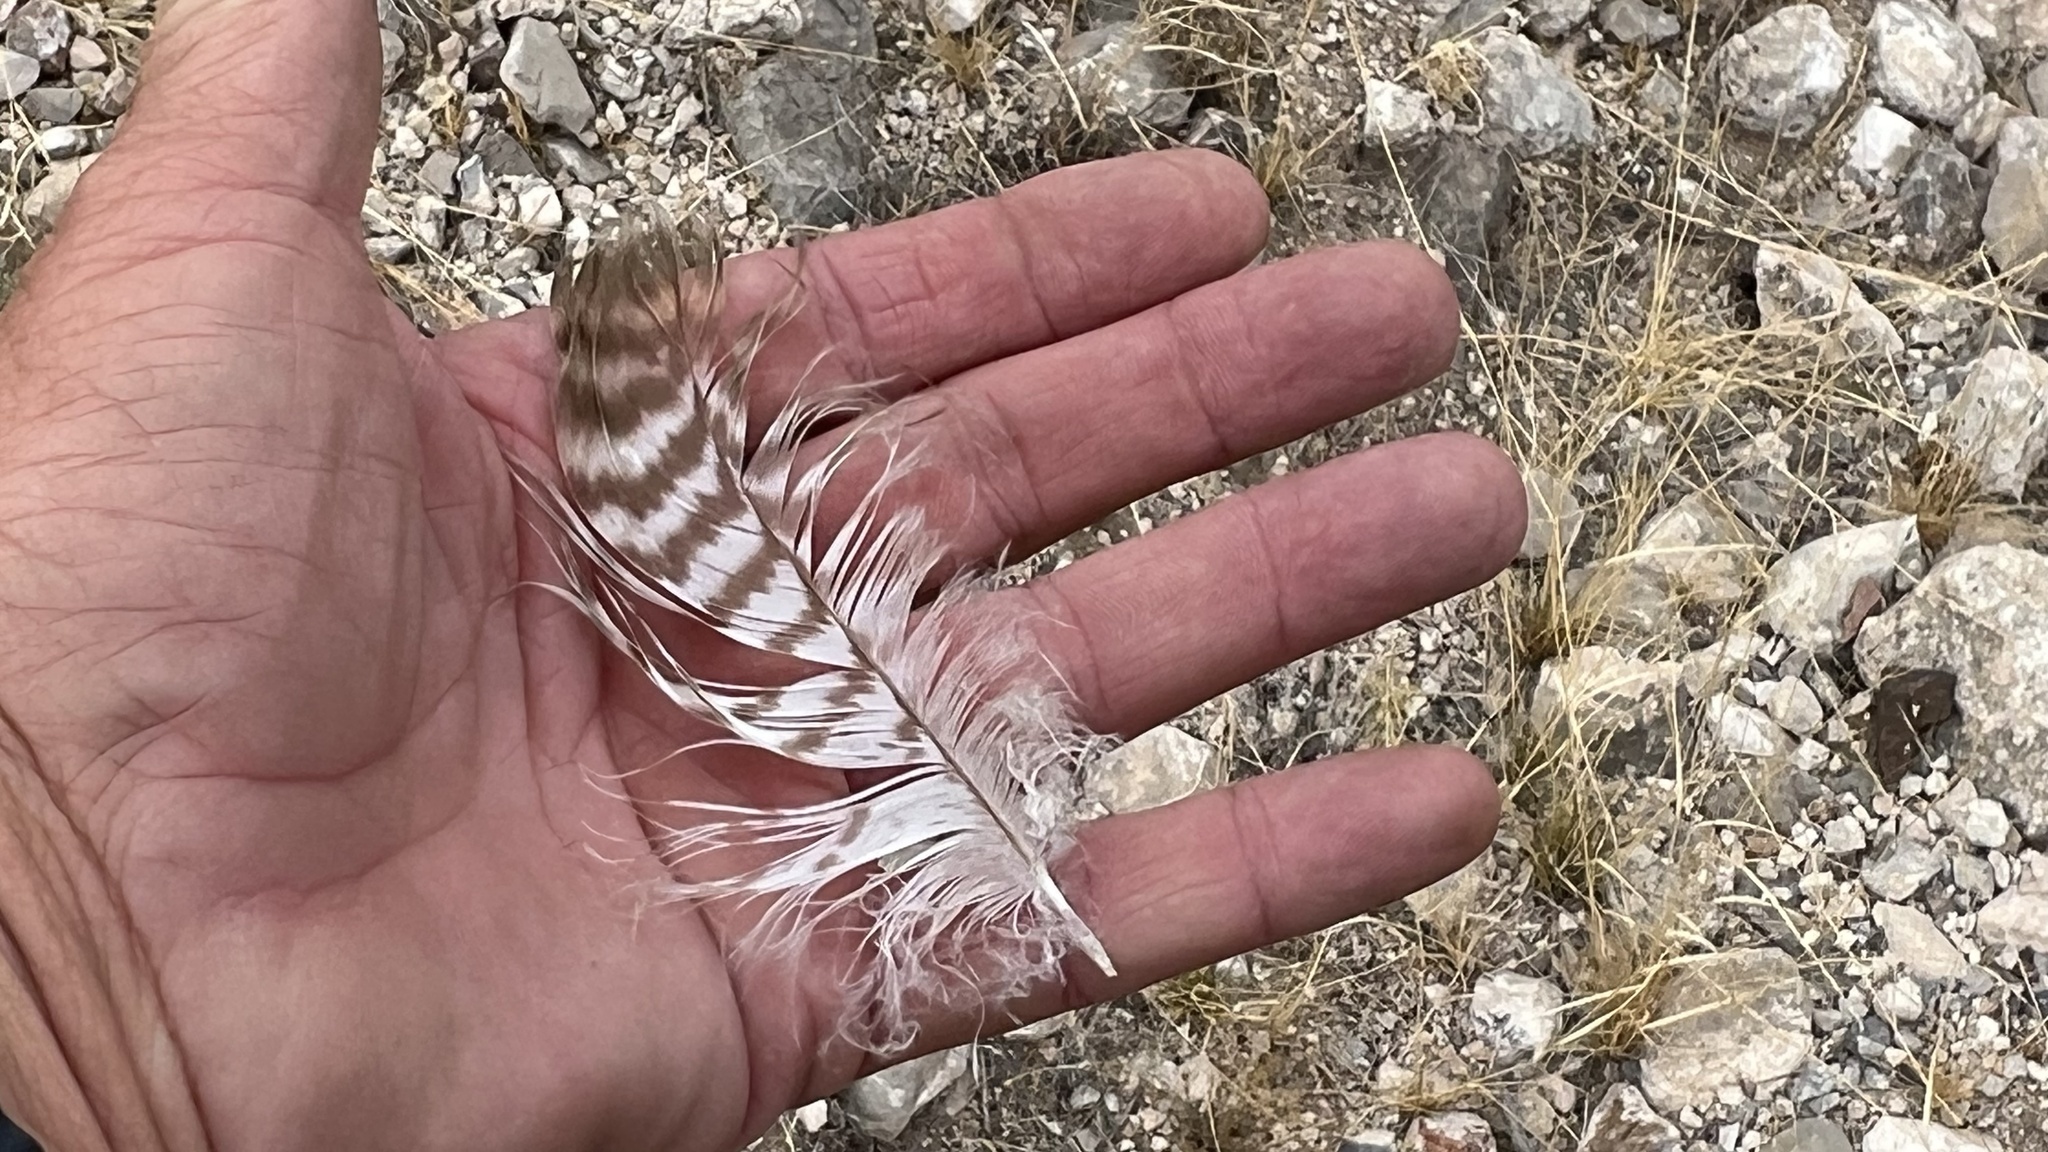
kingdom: Animalia
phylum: Chordata
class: Aves
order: Accipitriformes
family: Accipitridae
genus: Buteo
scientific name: Buteo jamaicensis
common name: Red-tailed hawk
